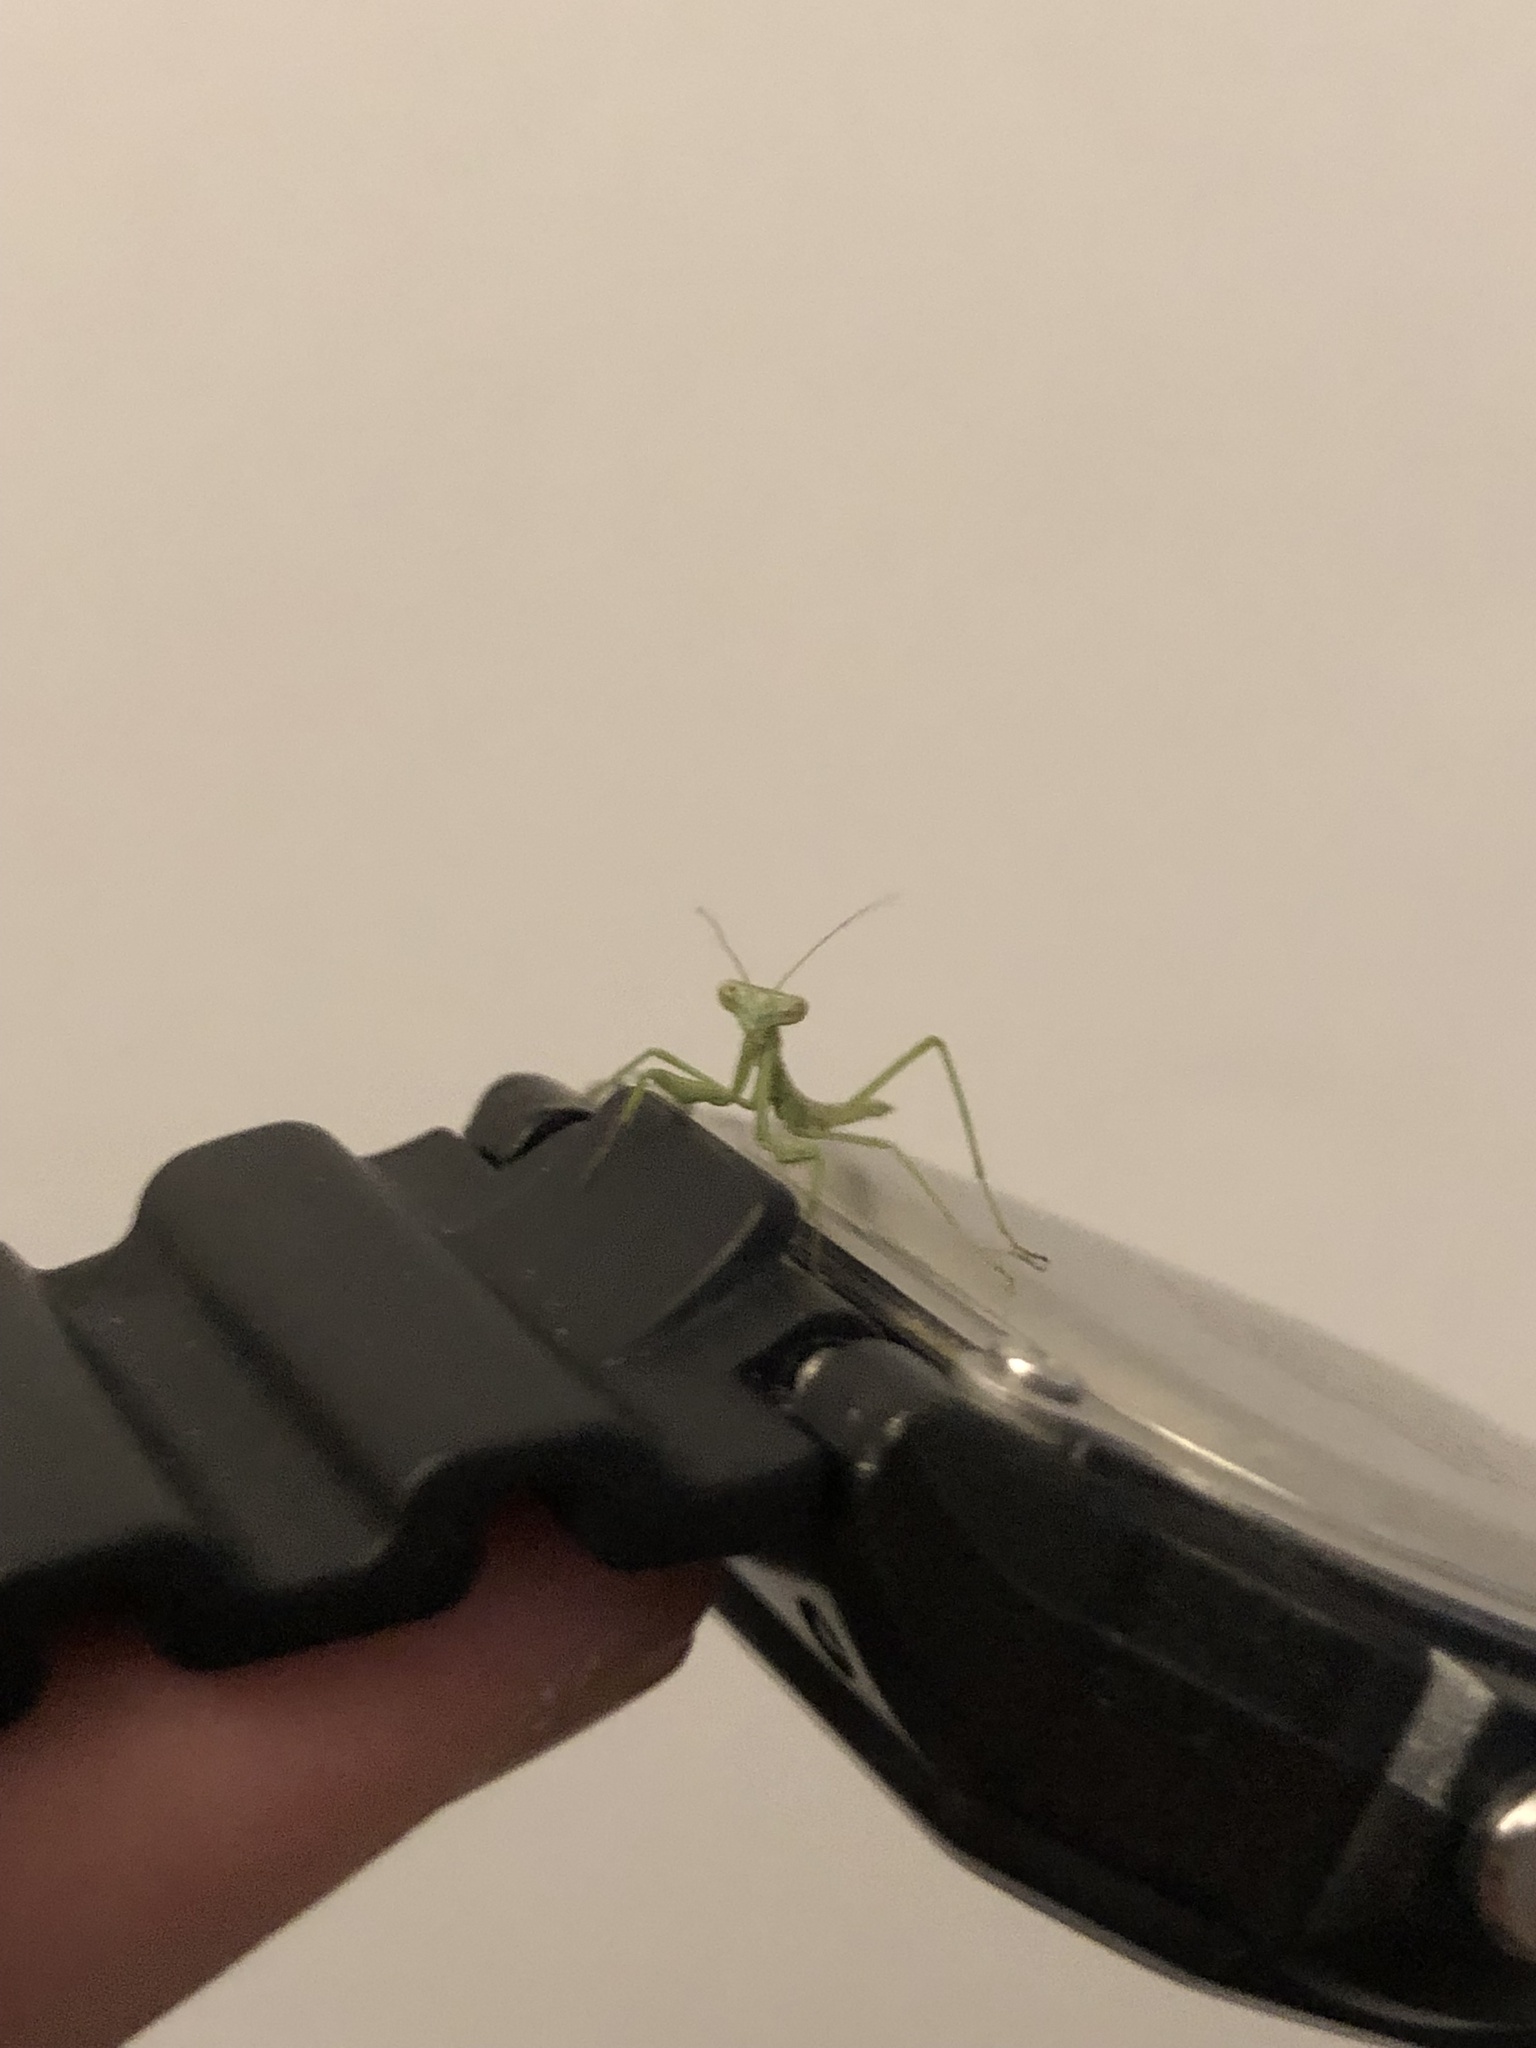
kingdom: Animalia
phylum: Arthropoda
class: Insecta
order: Mantodea
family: Coptopterygidae
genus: Coptopteryx
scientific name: Coptopteryx gayi
